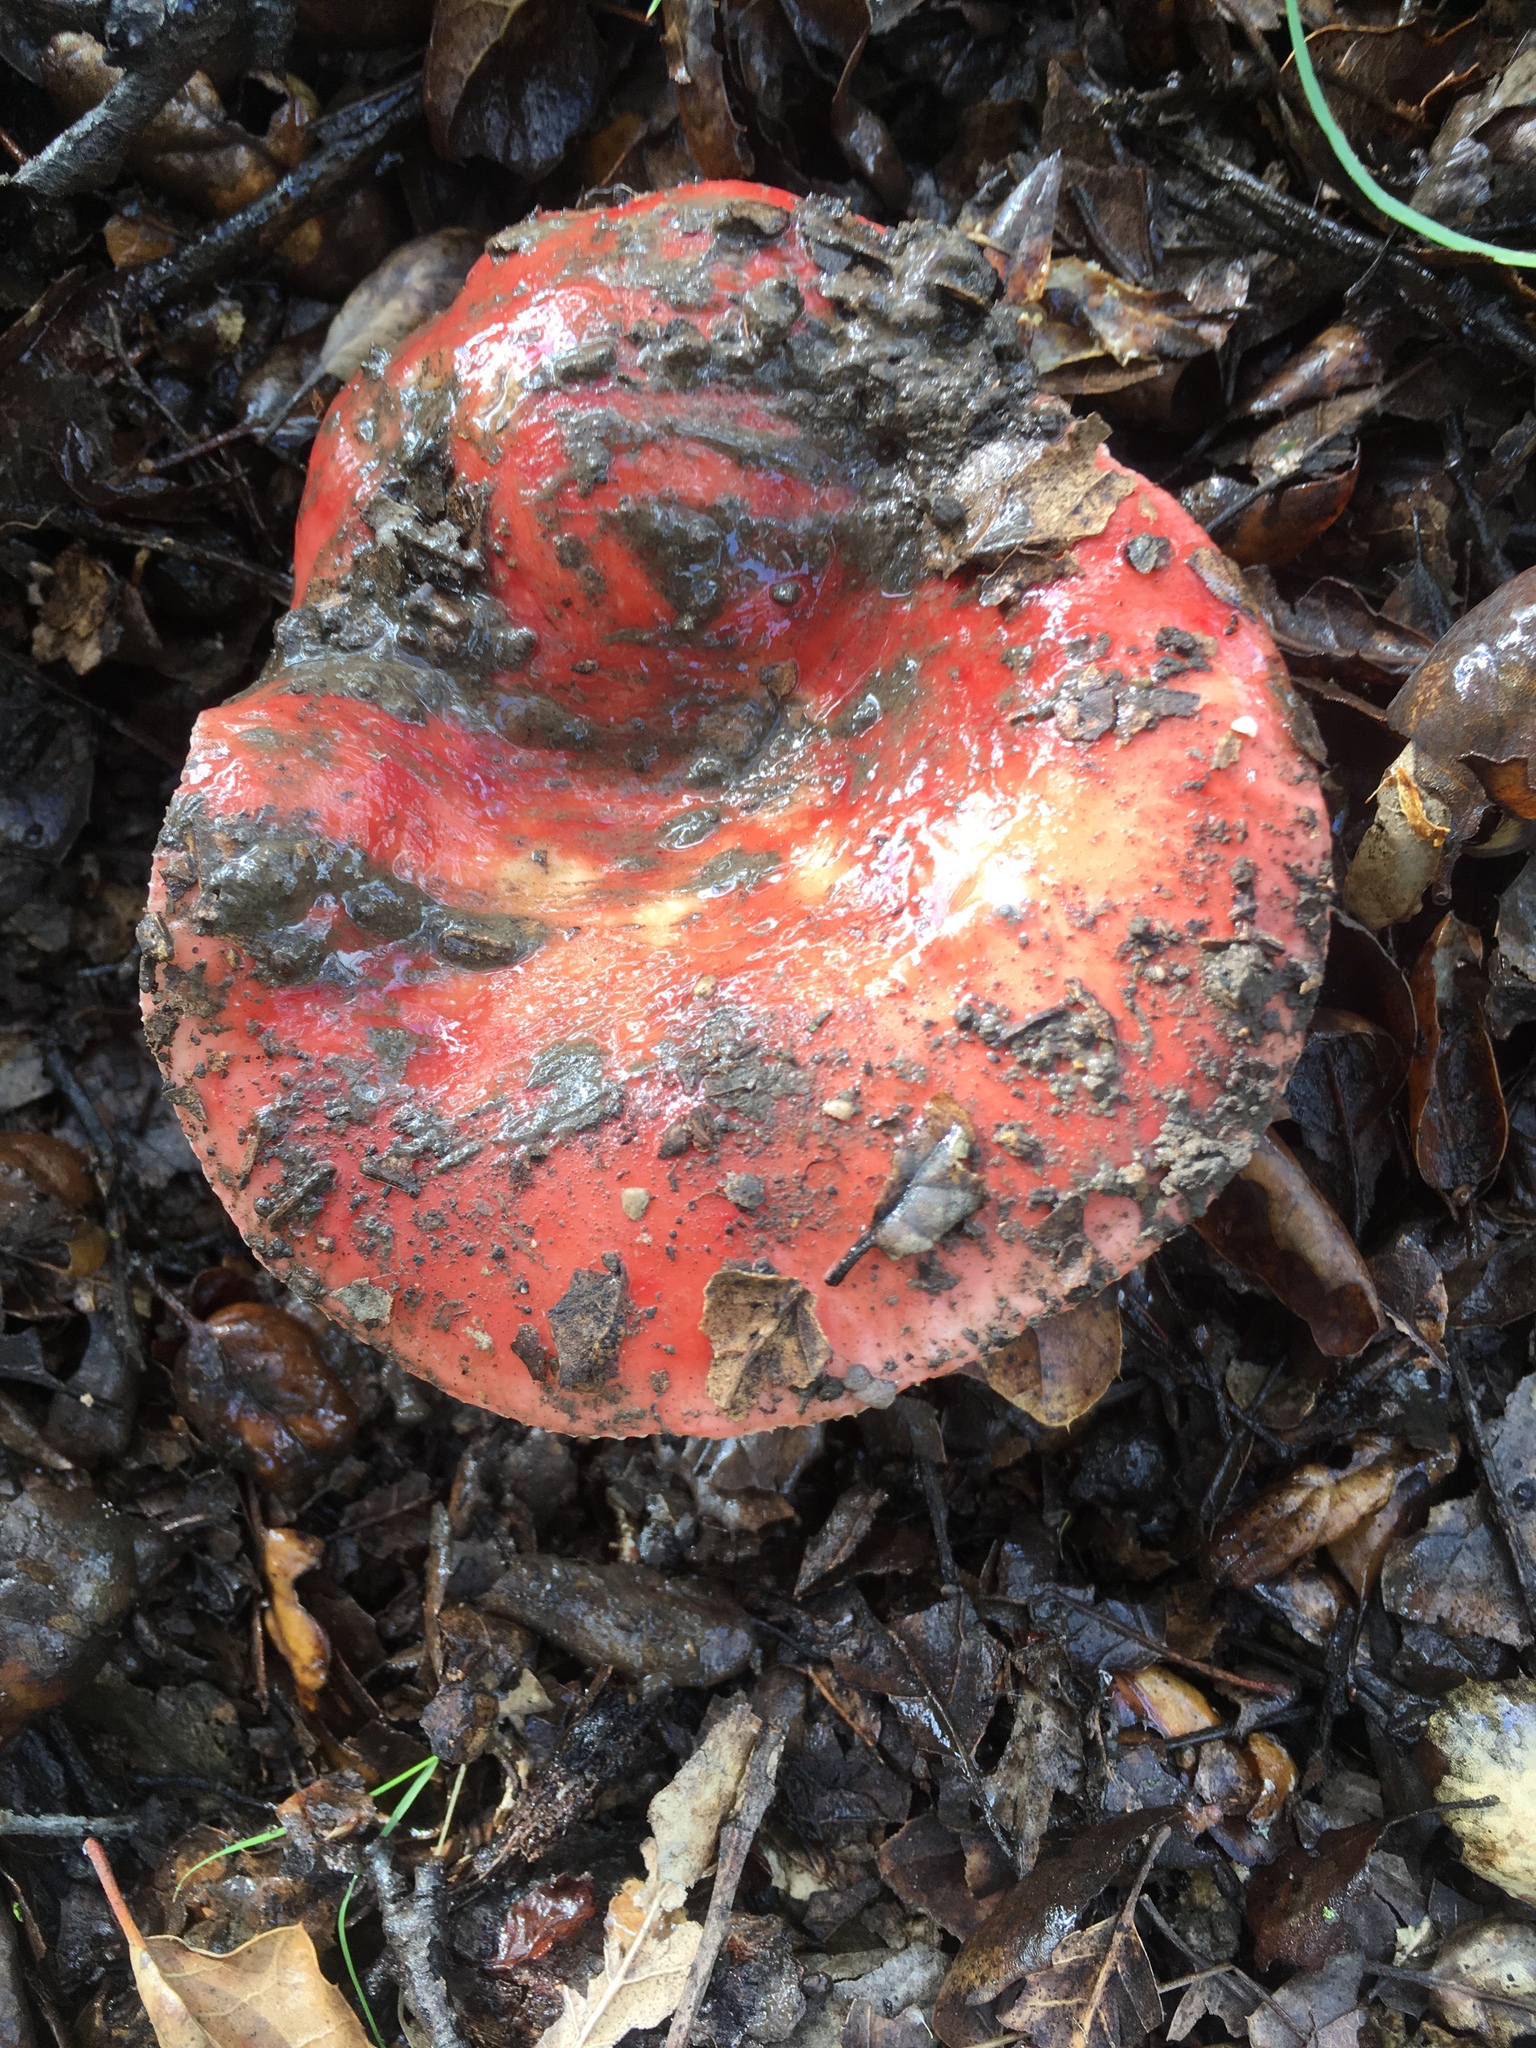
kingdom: Fungi
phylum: Basidiomycota
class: Agaricomycetes
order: Russulales
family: Russulaceae
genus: Russula
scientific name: Russula cremoricolor
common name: Winter russula
